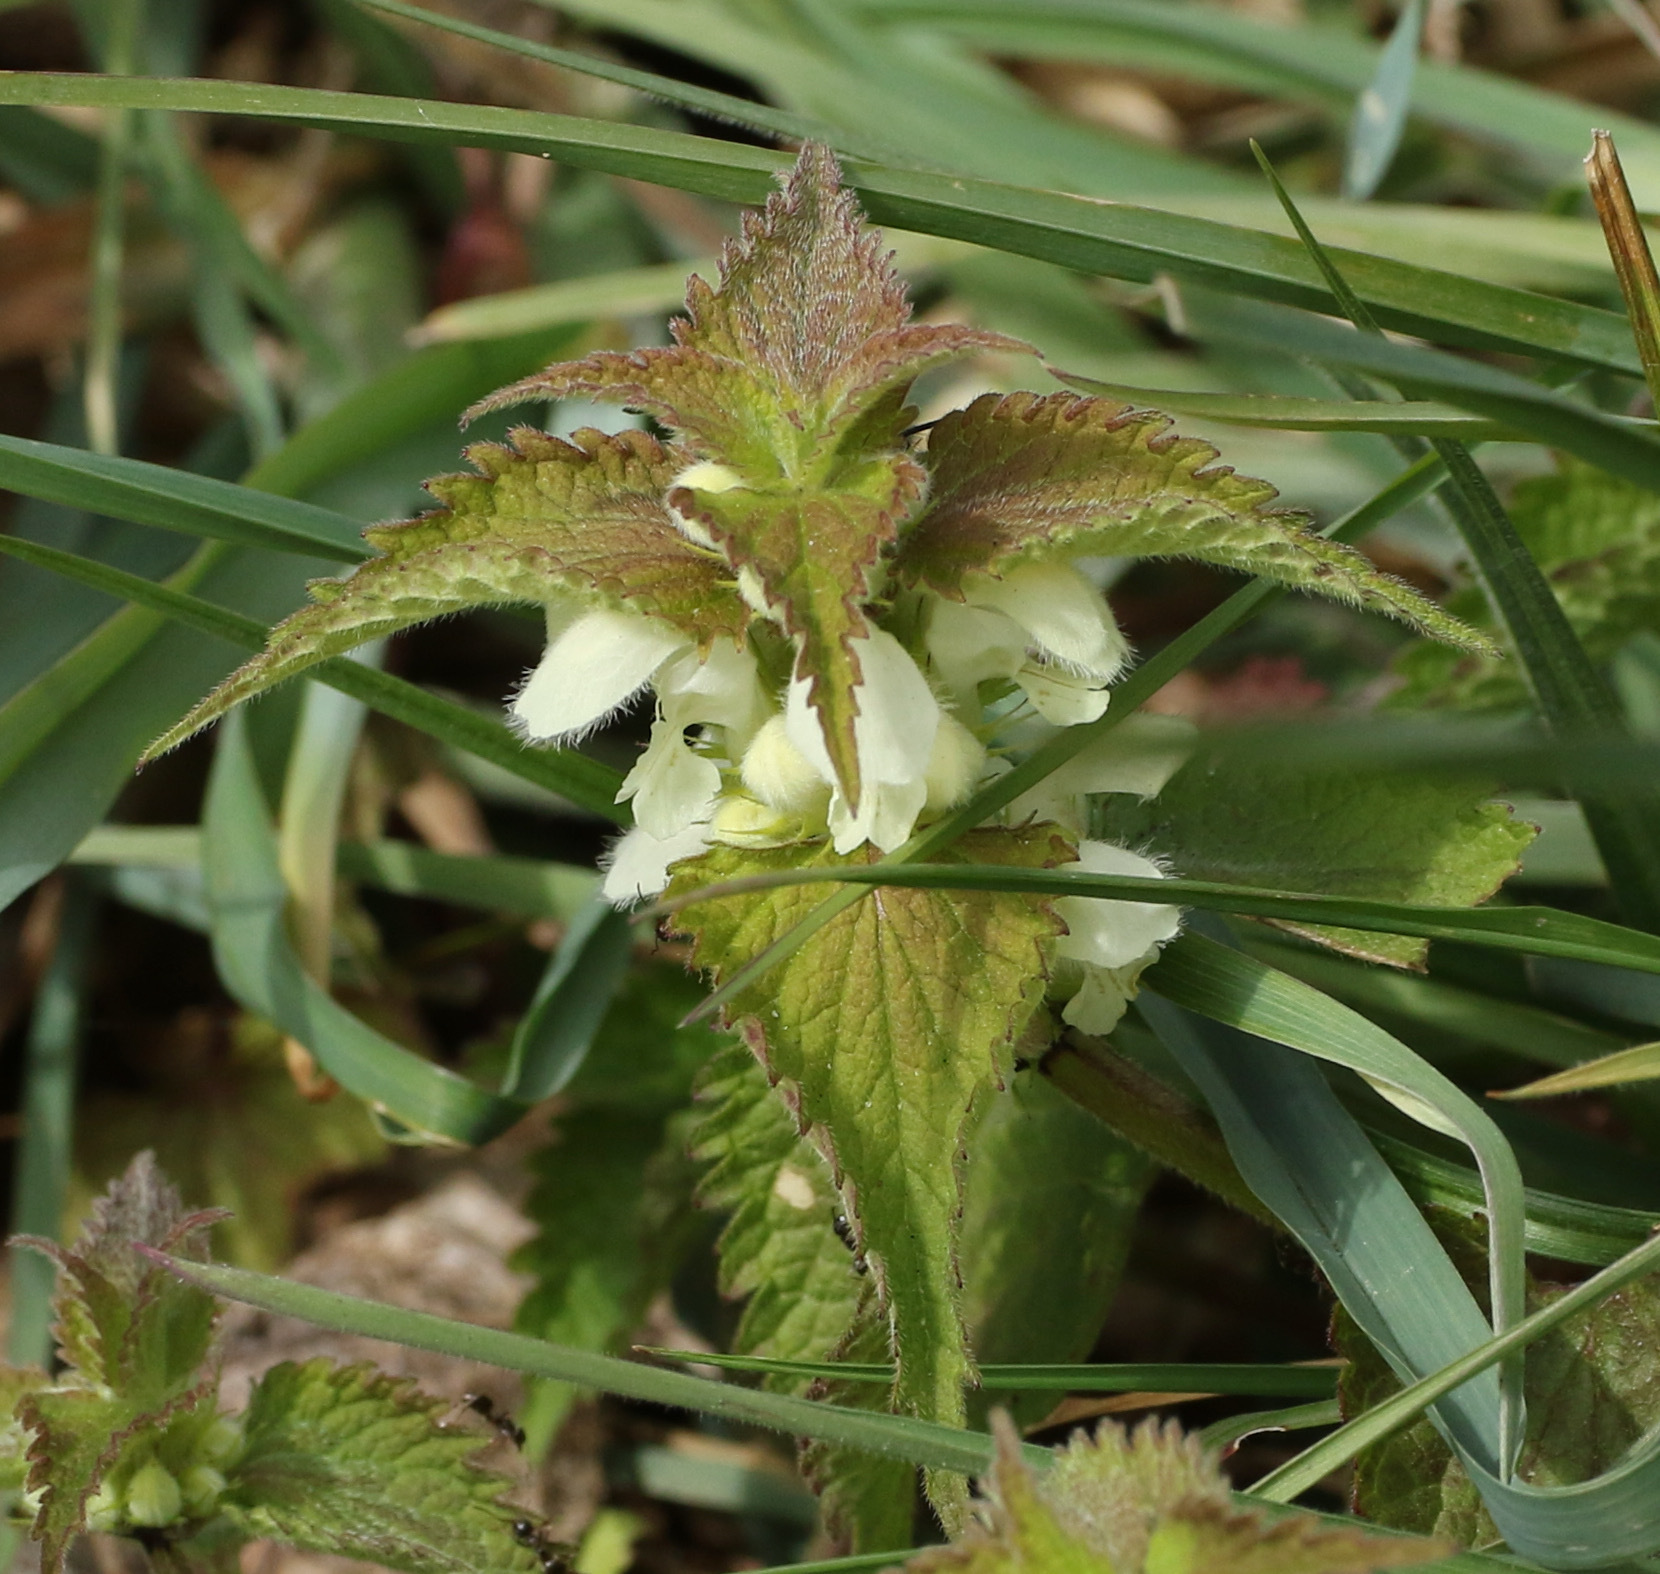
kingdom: Plantae
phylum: Tracheophyta
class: Magnoliopsida
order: Lamiales
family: Lamiaceae
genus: Lamium
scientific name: Lamium album
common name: White dead-nettle
